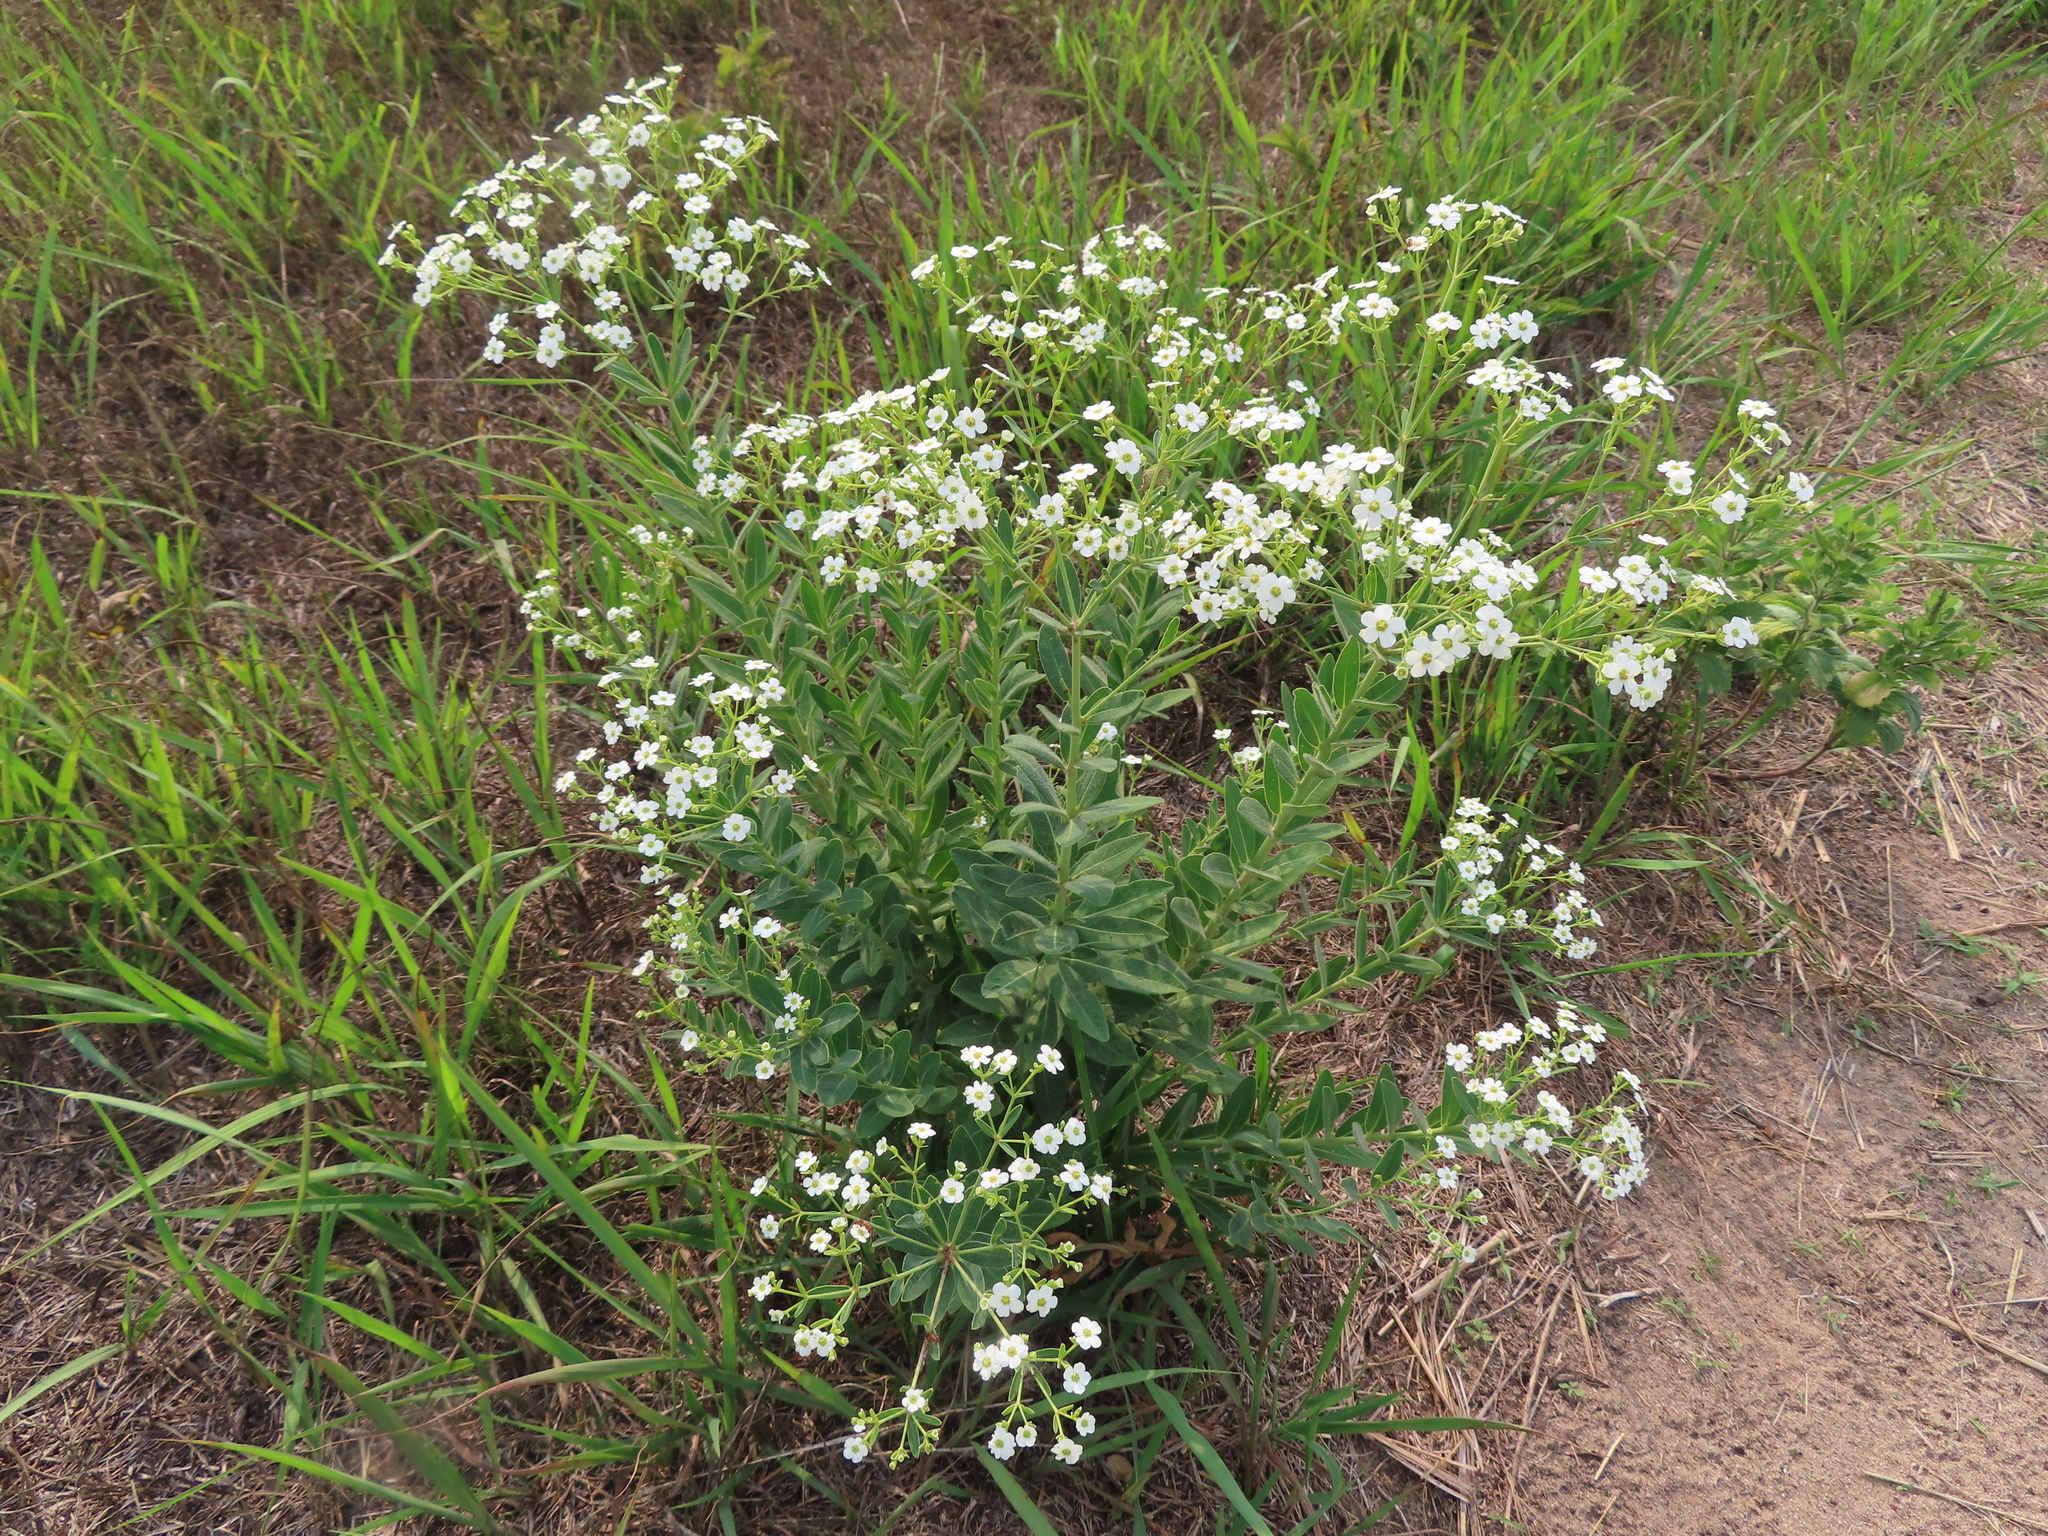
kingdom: Plantae
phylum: Tracheophyta
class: Magnoliopsida
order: Malpighiales
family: Euphorbiaceae
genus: Euphorbia
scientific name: Euphorbia corollata
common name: Flowering spurge
